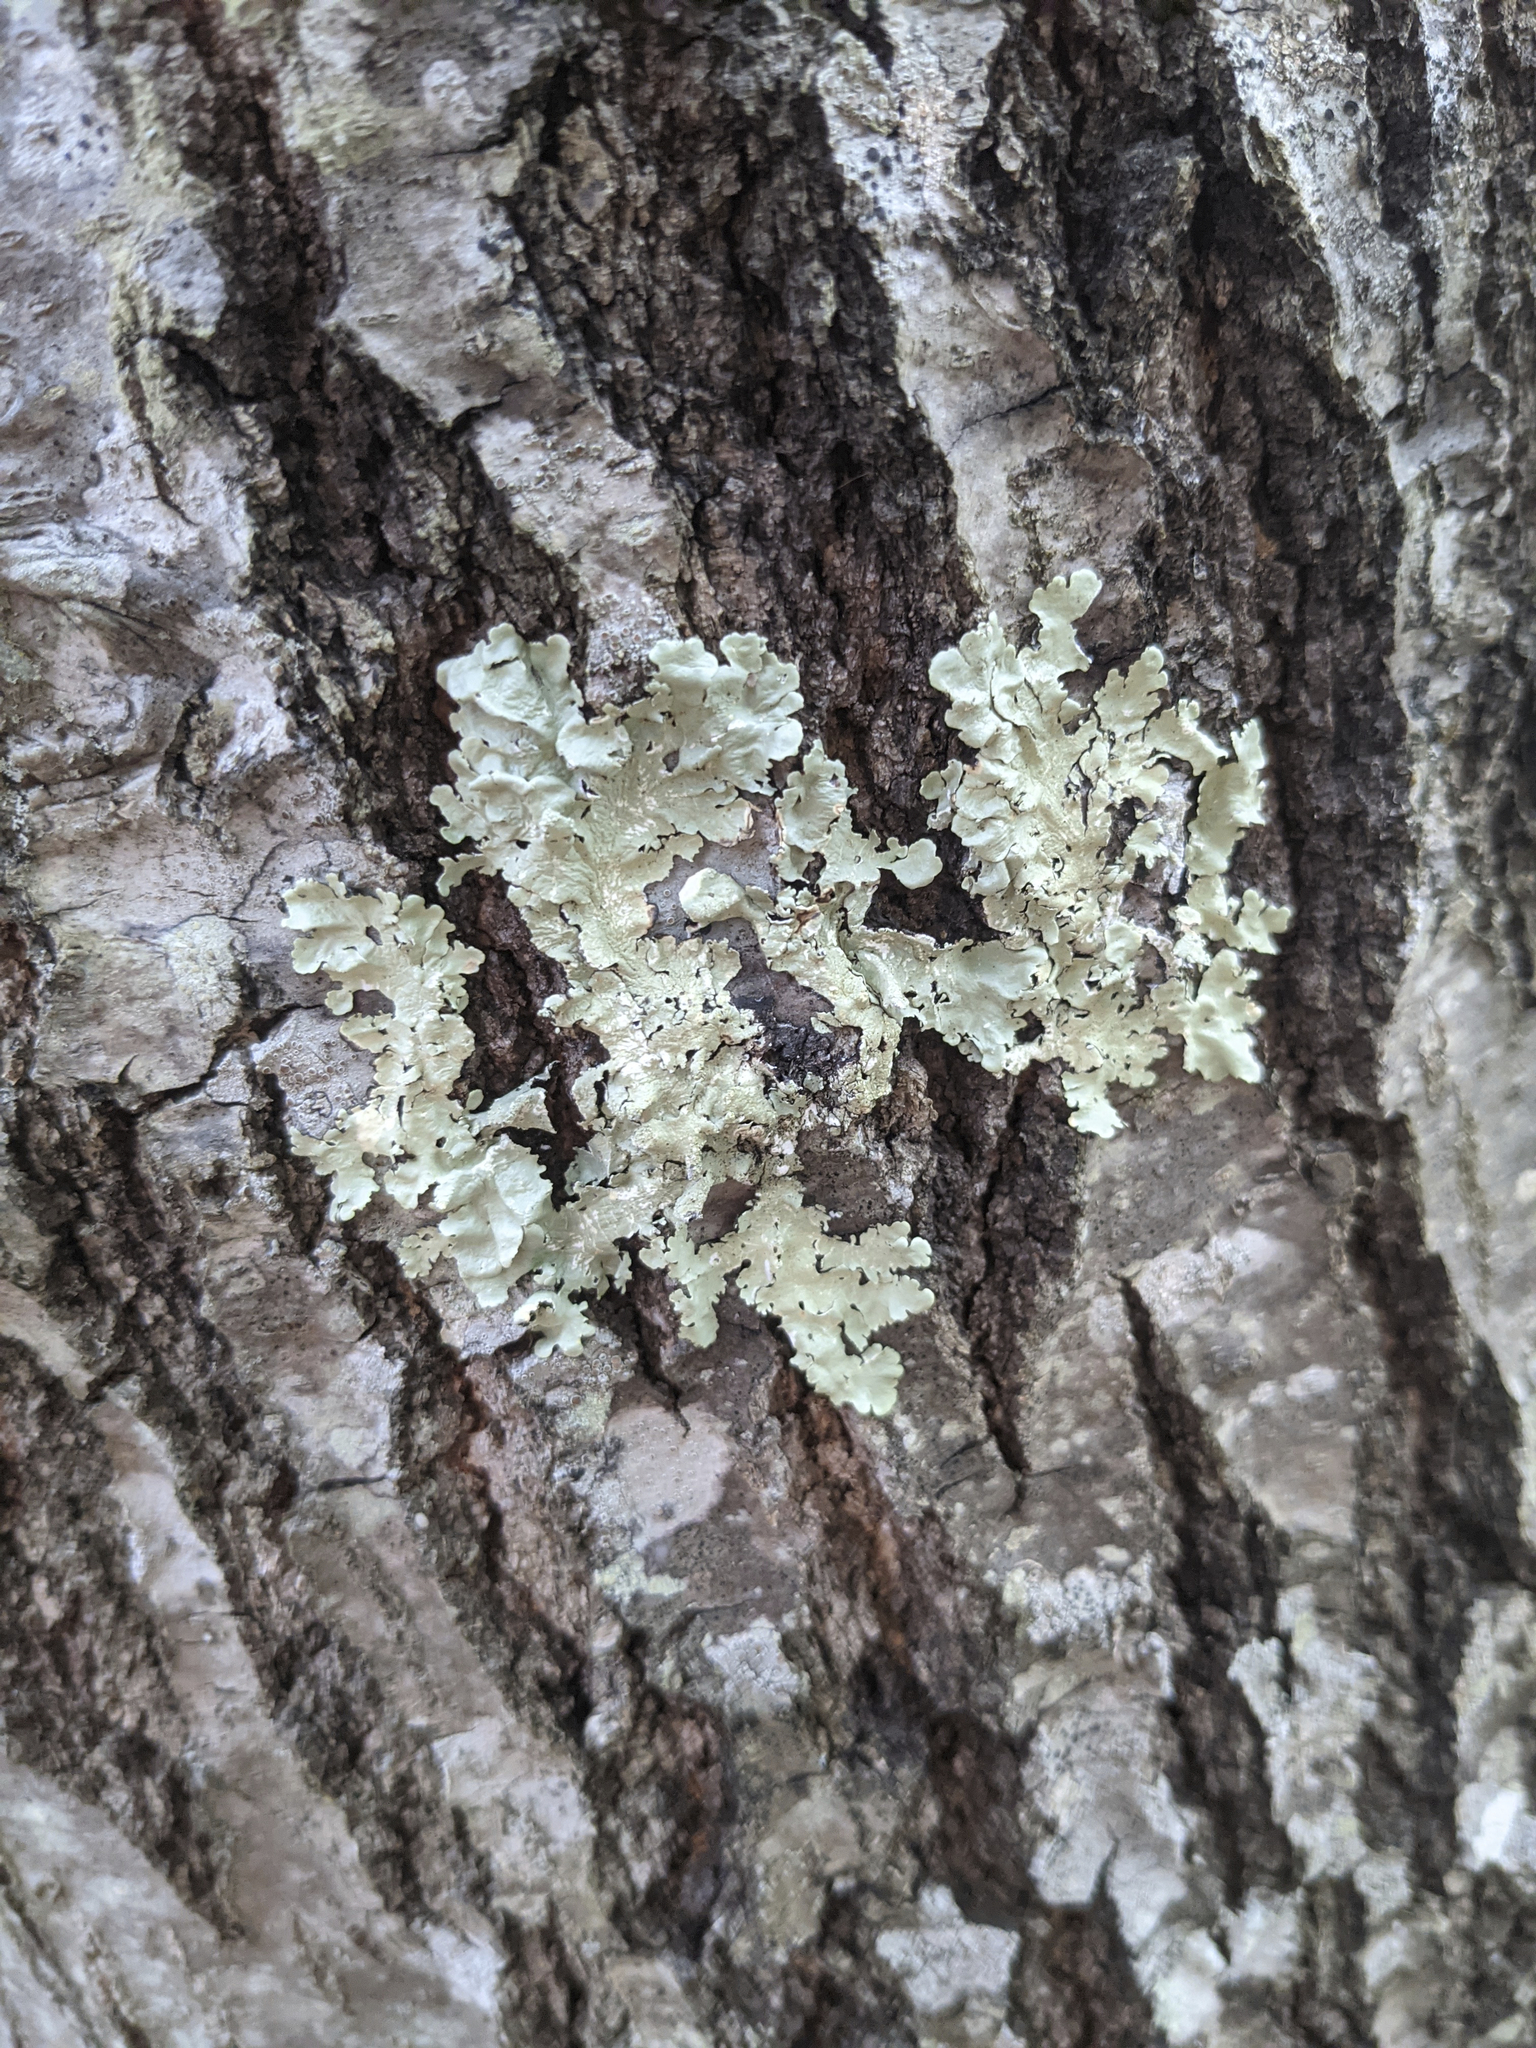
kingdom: Fungi
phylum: Ascomycota
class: Lecanoromycetes
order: Lecanorales
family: Parmeliaceae
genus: Flavoparmelia
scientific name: Flavoparmelia caperata
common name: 40-mile per hour lichen
